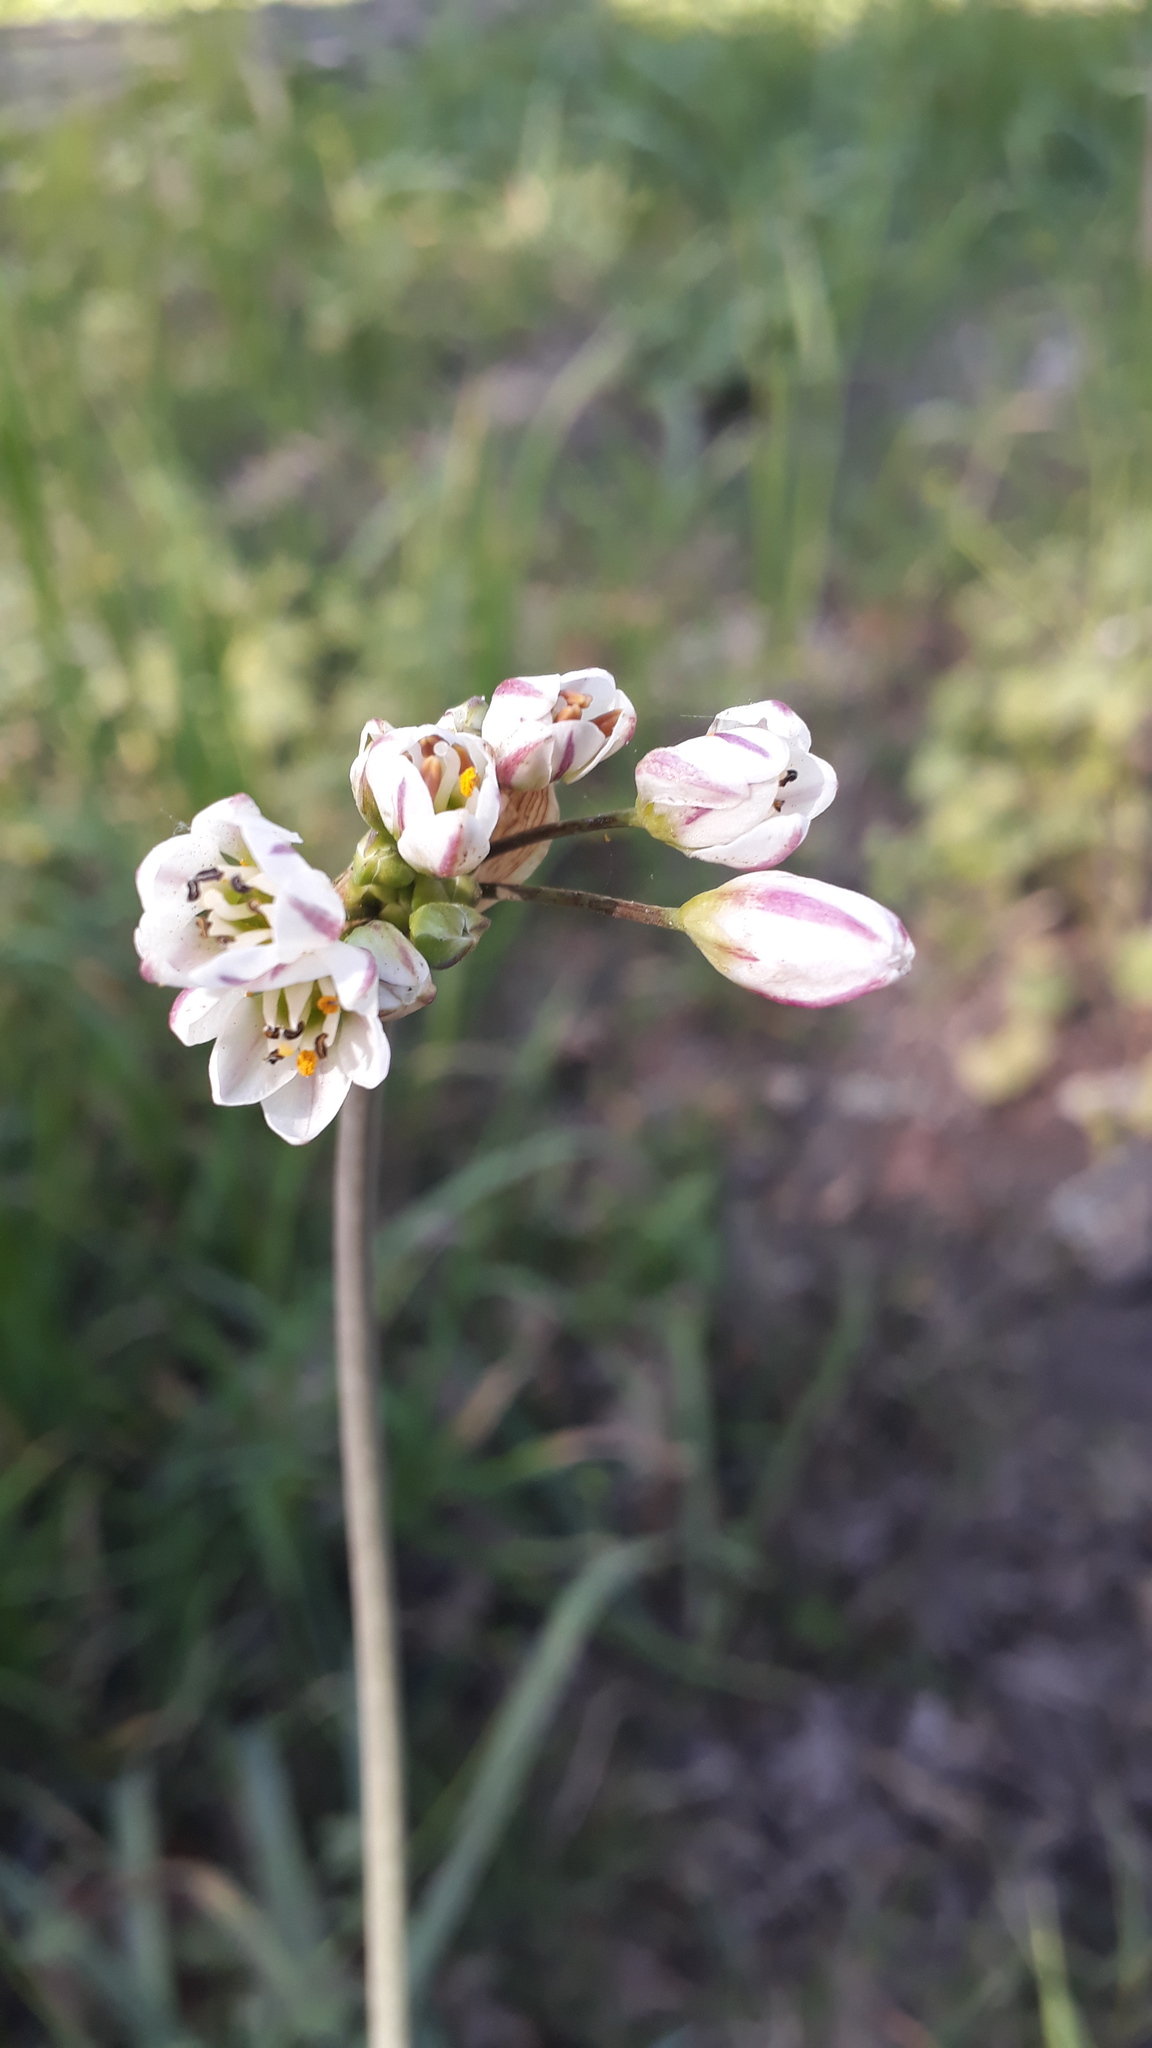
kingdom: Plantae
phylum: Tracheophyta
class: Liliopsida
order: Asparagales
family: Amaryllidaceae
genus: Nothoscordum
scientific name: Nothoscordum gracile
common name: Slender false garlic
